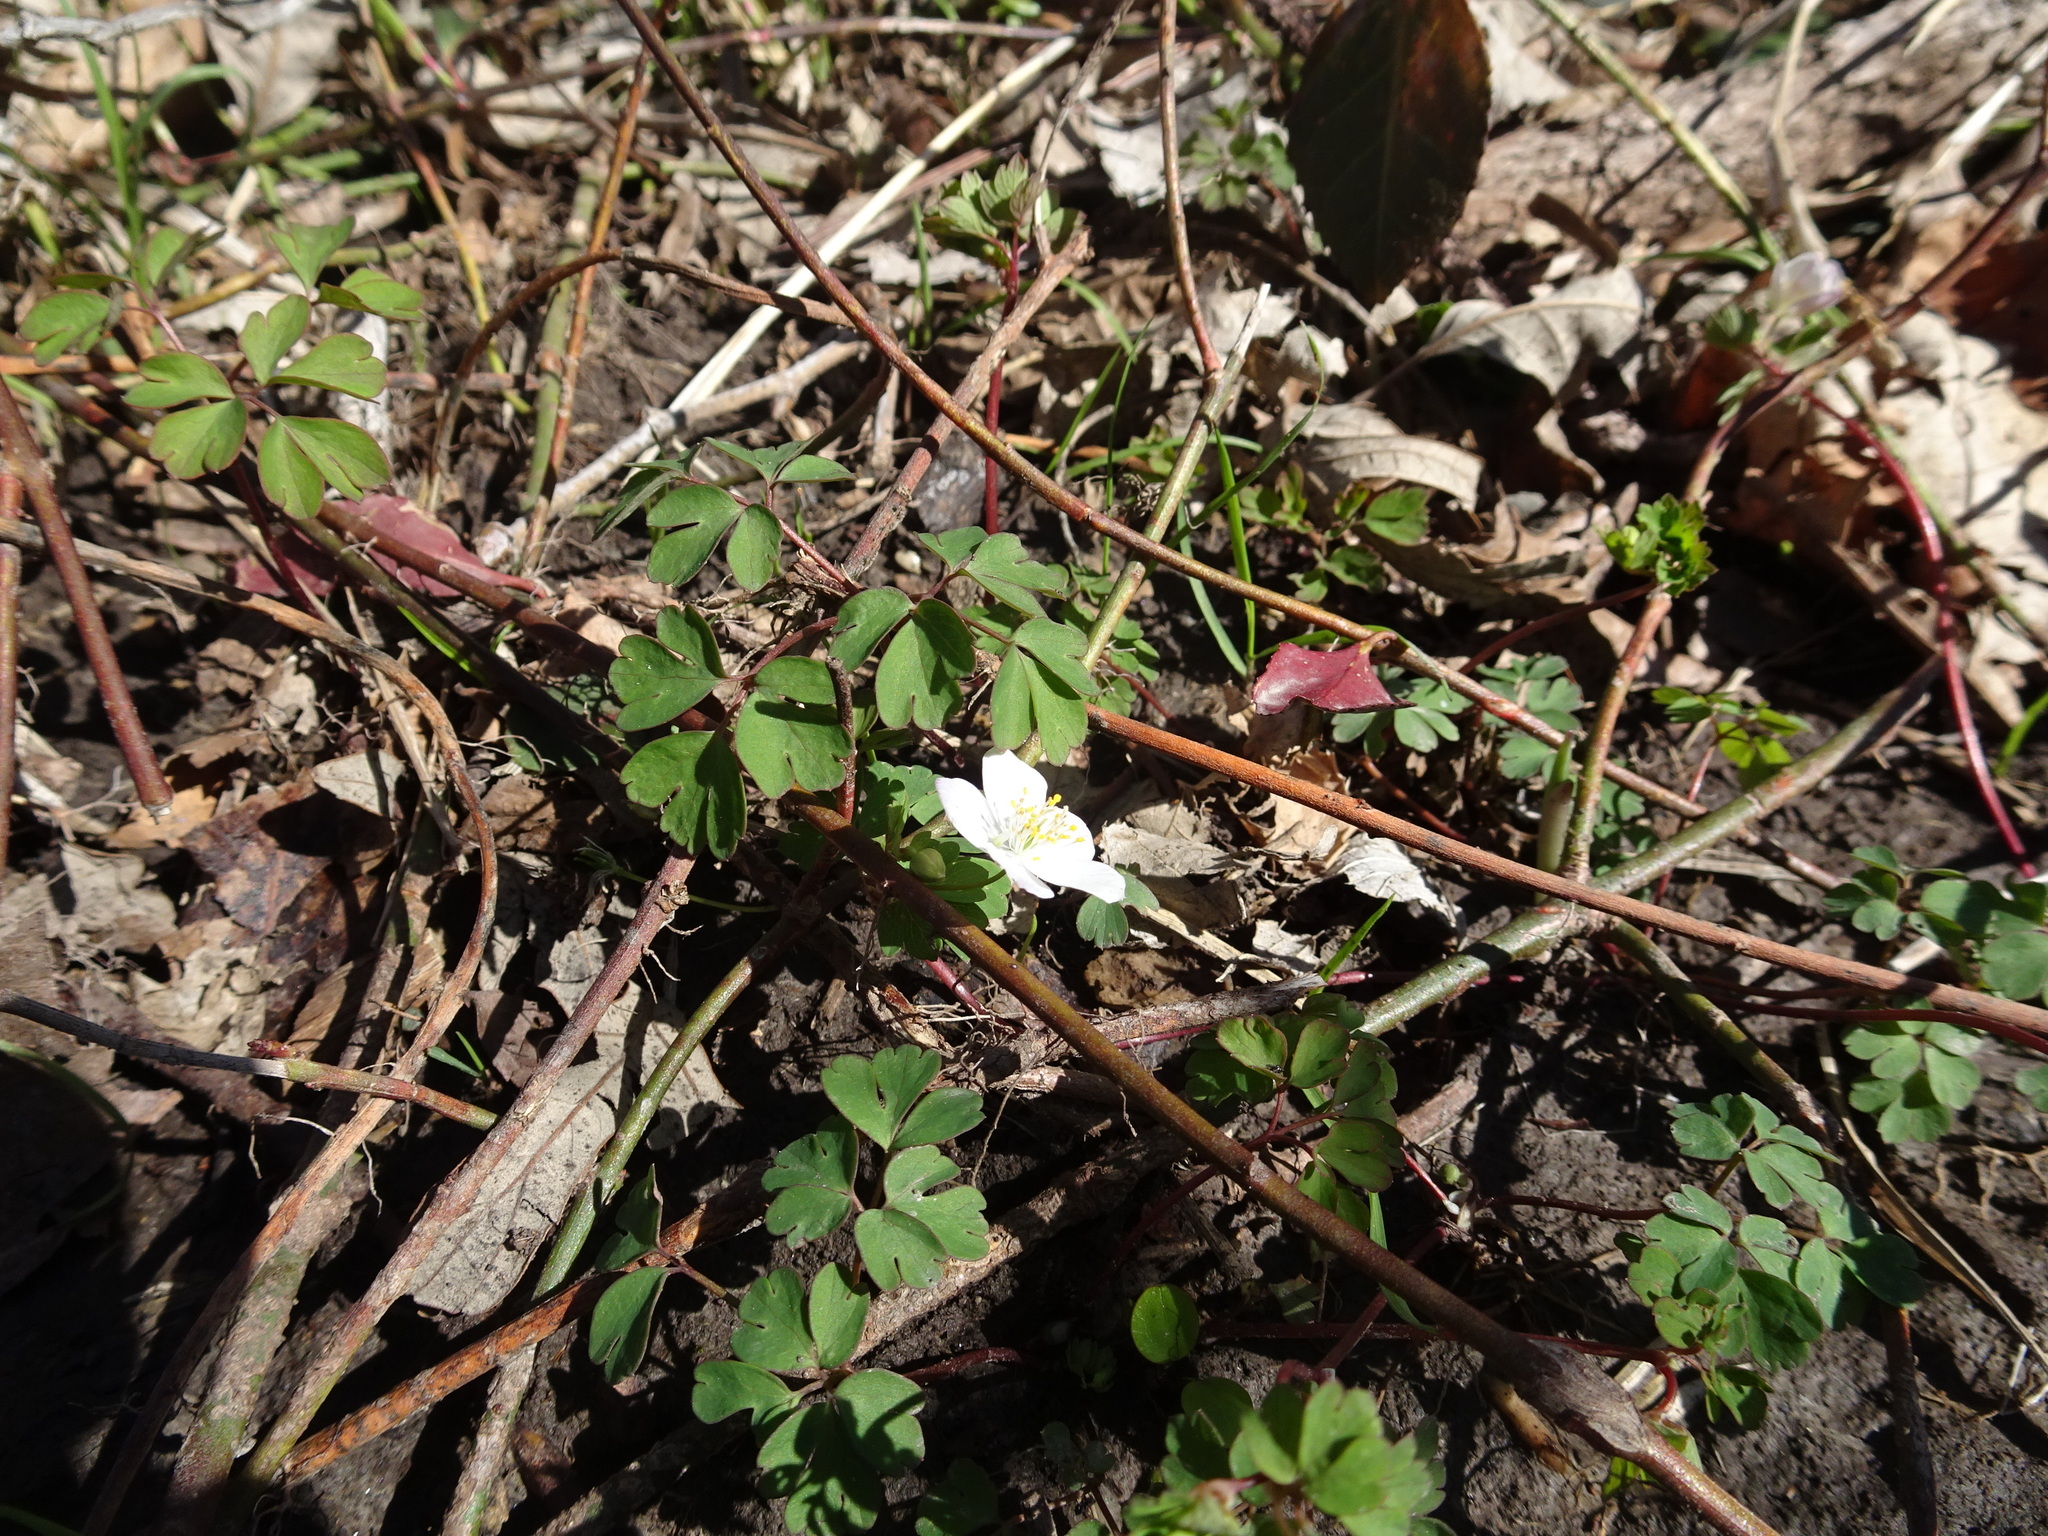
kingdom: Plantae
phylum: Tracheophyta
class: Magnoliopsida
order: Ranunculales
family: Ranunculaceae
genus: Enemion
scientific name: Enemion biternatum
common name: Eastern false rue-anemone
